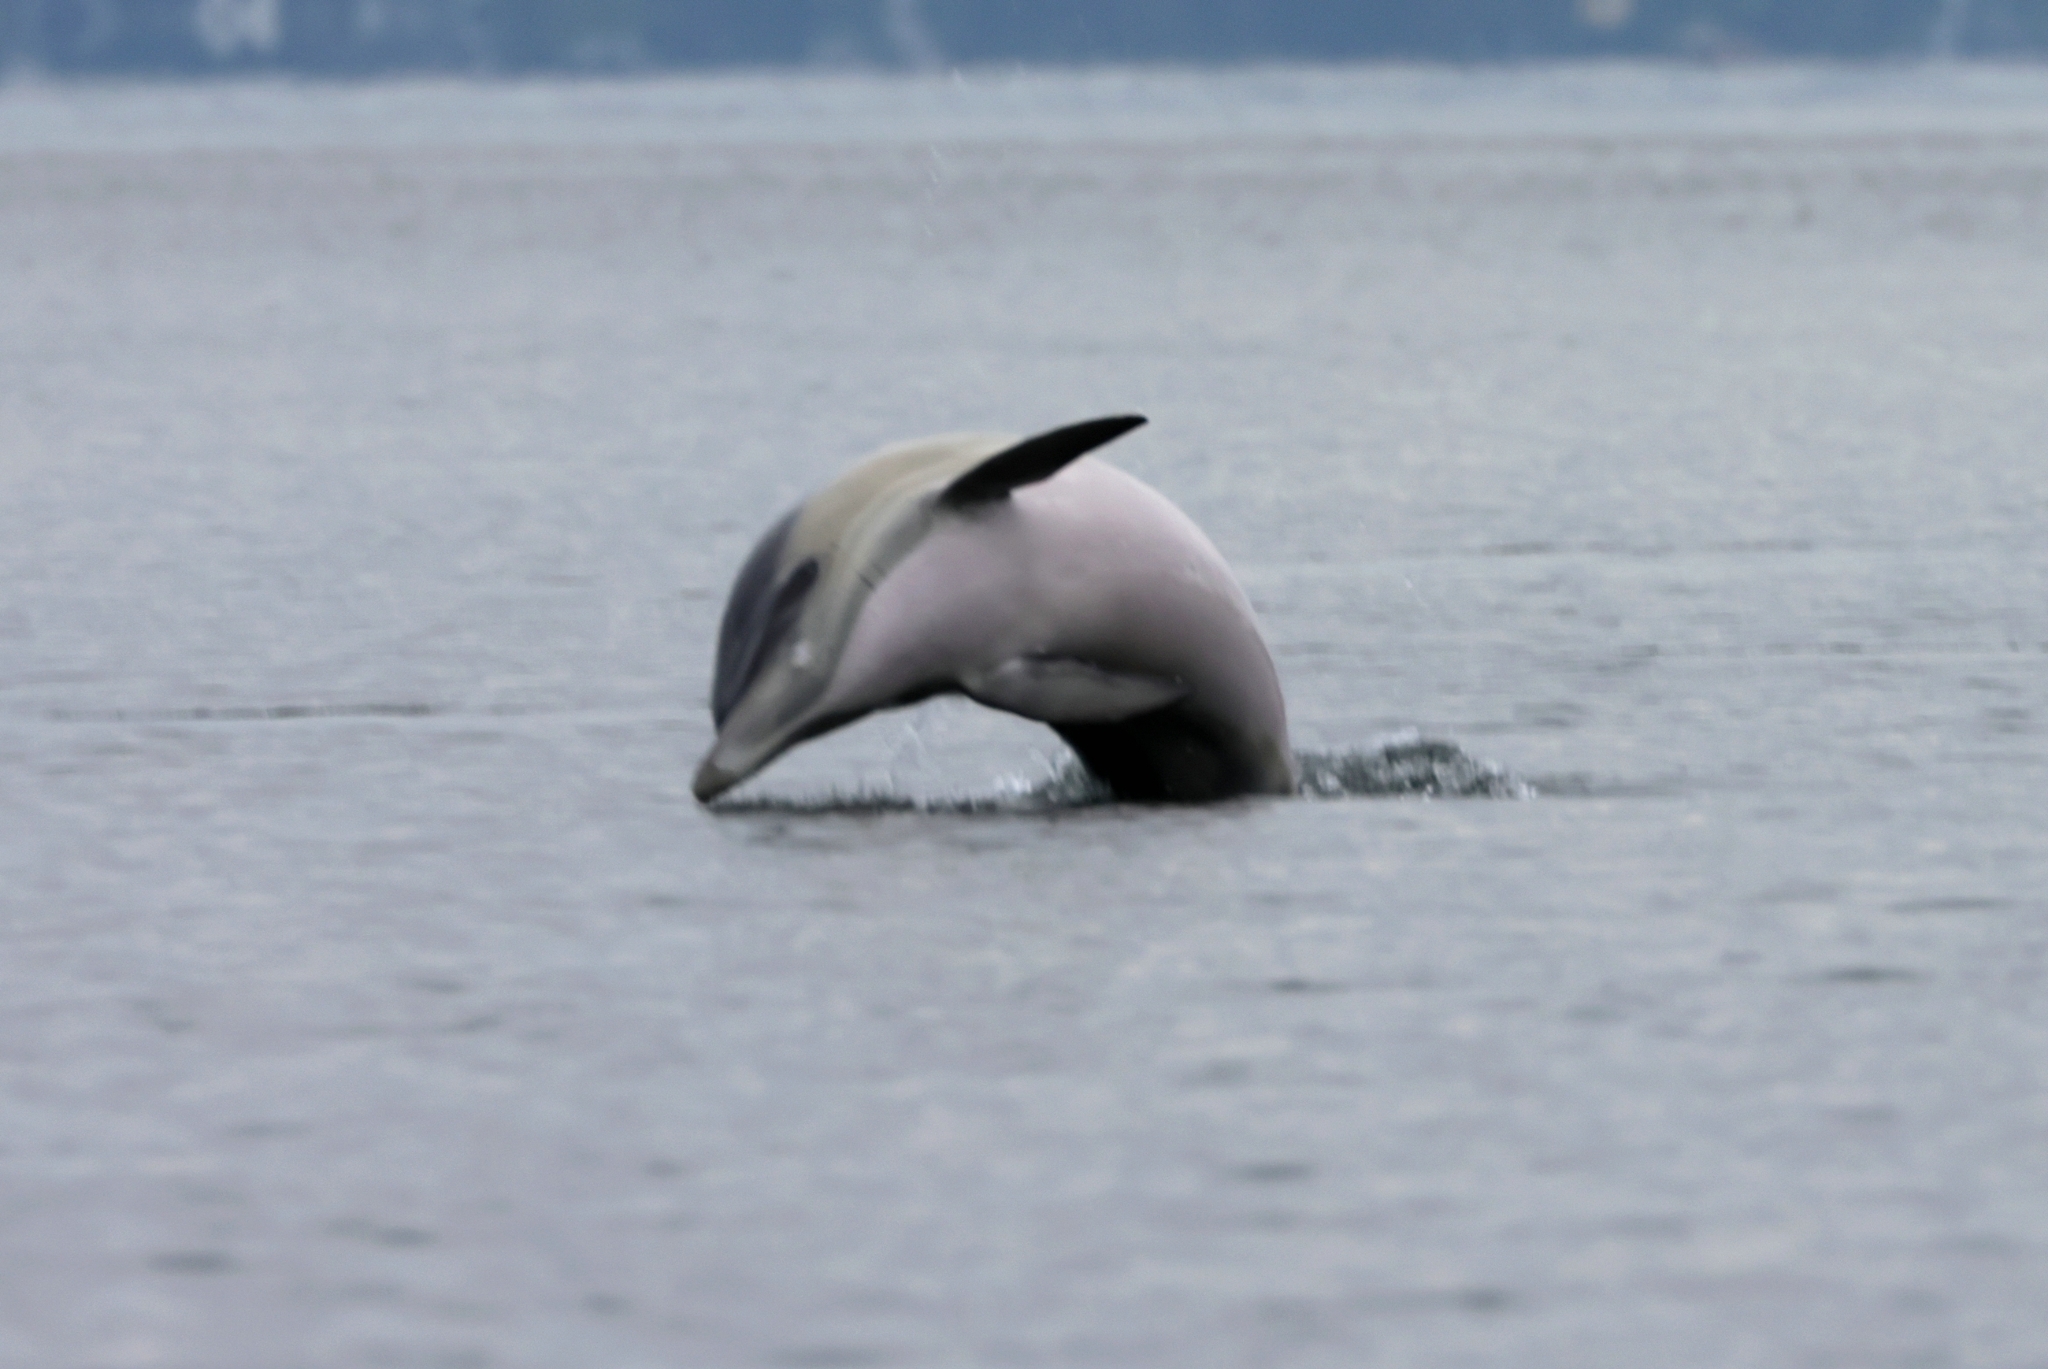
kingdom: Animalia
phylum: Chordata
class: Mammalia
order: Cetacea
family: Delphinidae
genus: Delphinus
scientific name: Delphinus delphis
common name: Common dolphin
